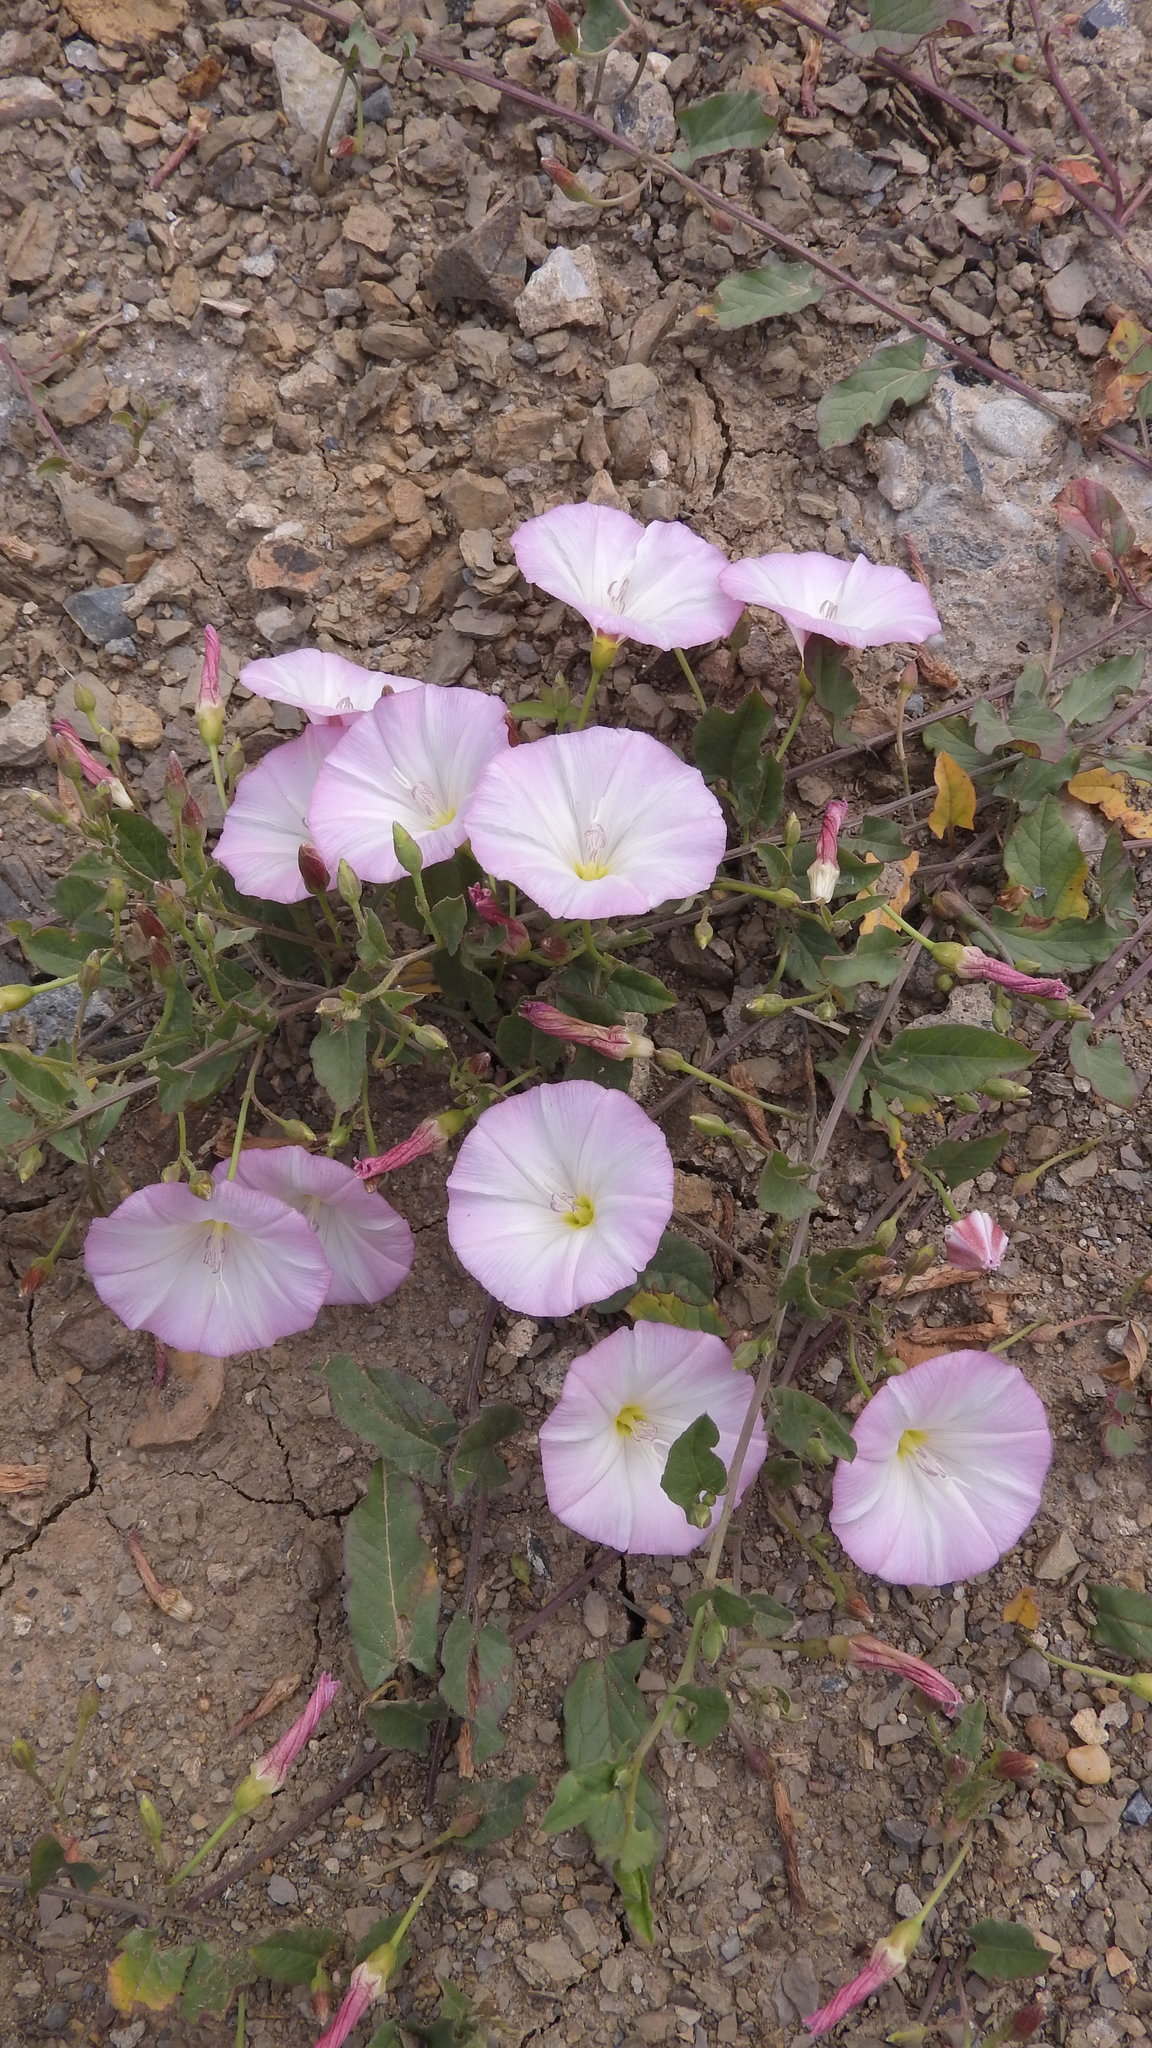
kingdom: Plantae
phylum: Tracheophyta
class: Magnoliopsida
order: Solanales
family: Convolvulaceae
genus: Convolvulus
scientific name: Convolvulus arvensis
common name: Field bindweed
